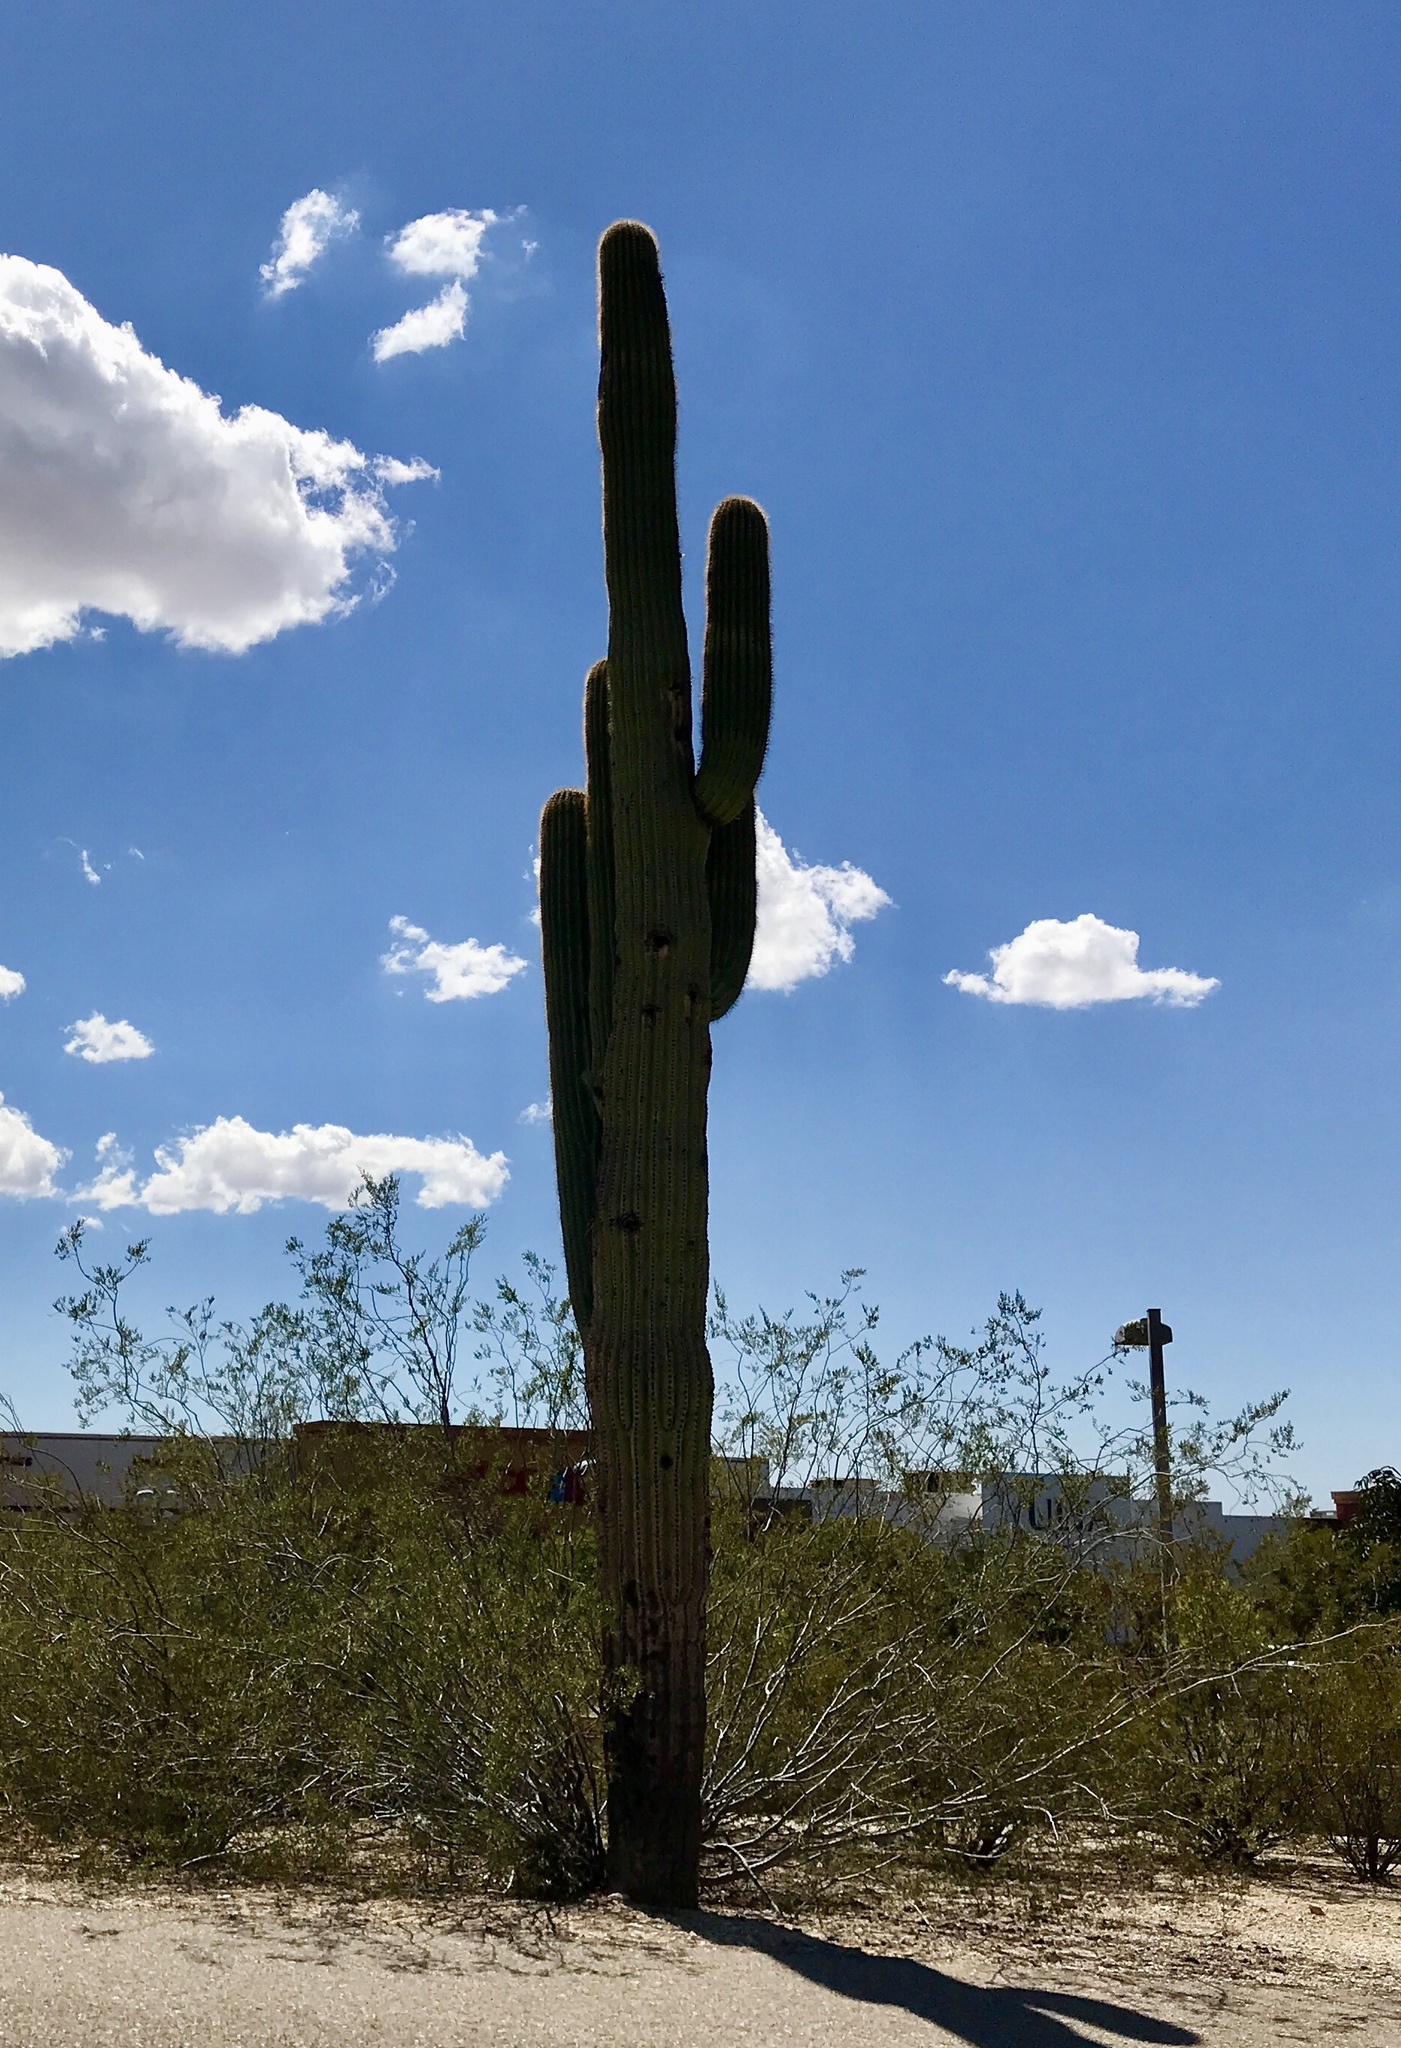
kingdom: Plantae
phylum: Tracheophyta
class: Magnoliopsida
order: Caryophyllales
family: Cactaceae
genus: Carnegiea
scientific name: Carnegiea gigantea
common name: Saguaro
